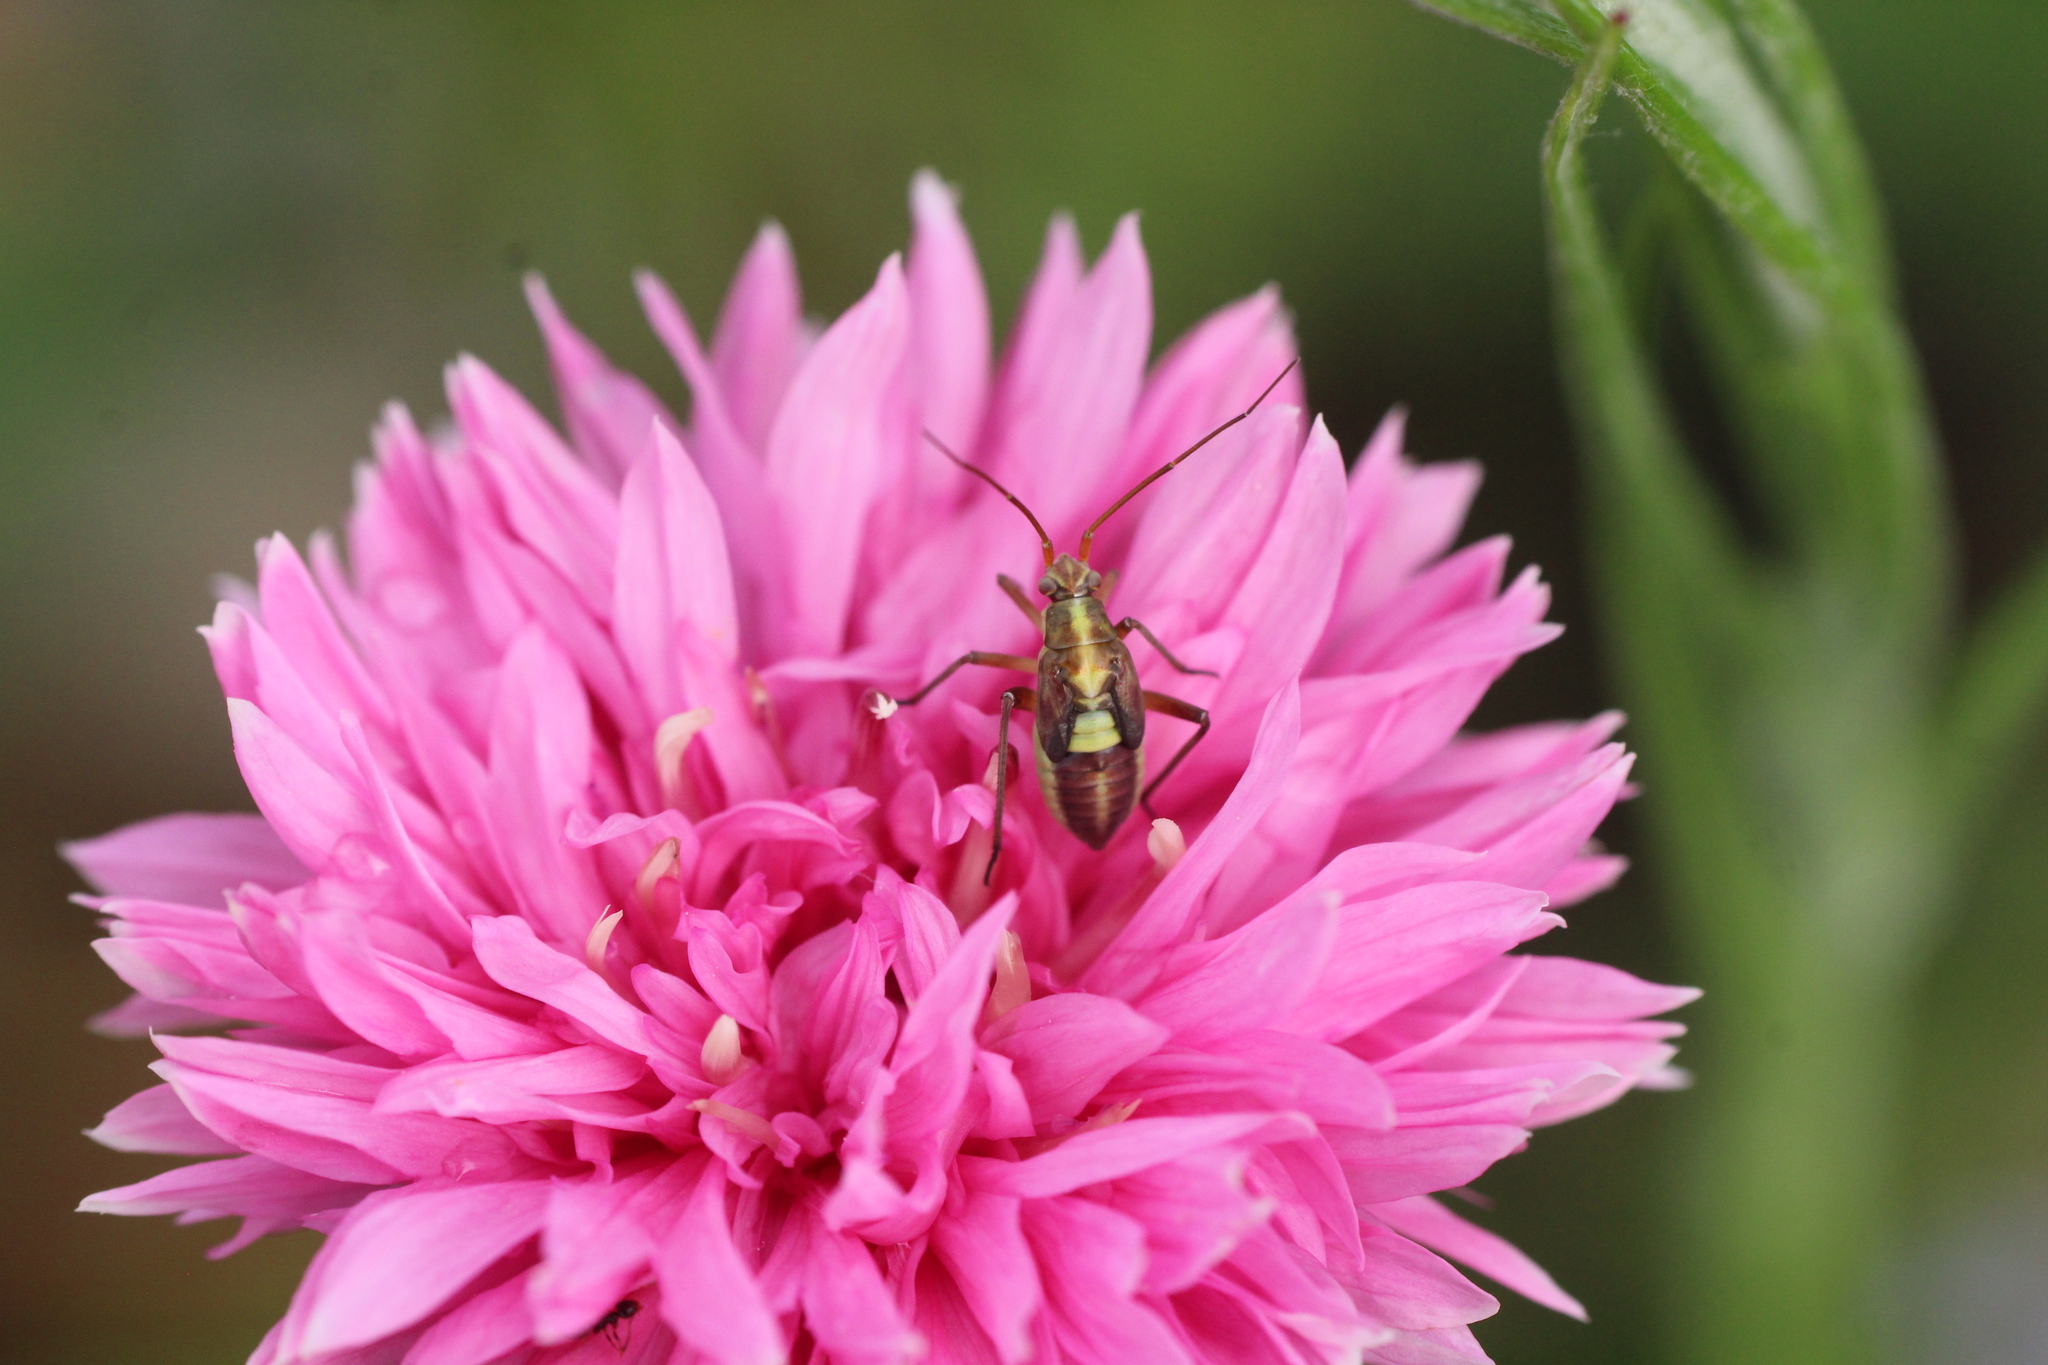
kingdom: Animalia
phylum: Arthropoda
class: Insecta
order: Hemiptera
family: Miridae
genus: Calocoris
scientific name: Calocoris roseomaculatus
